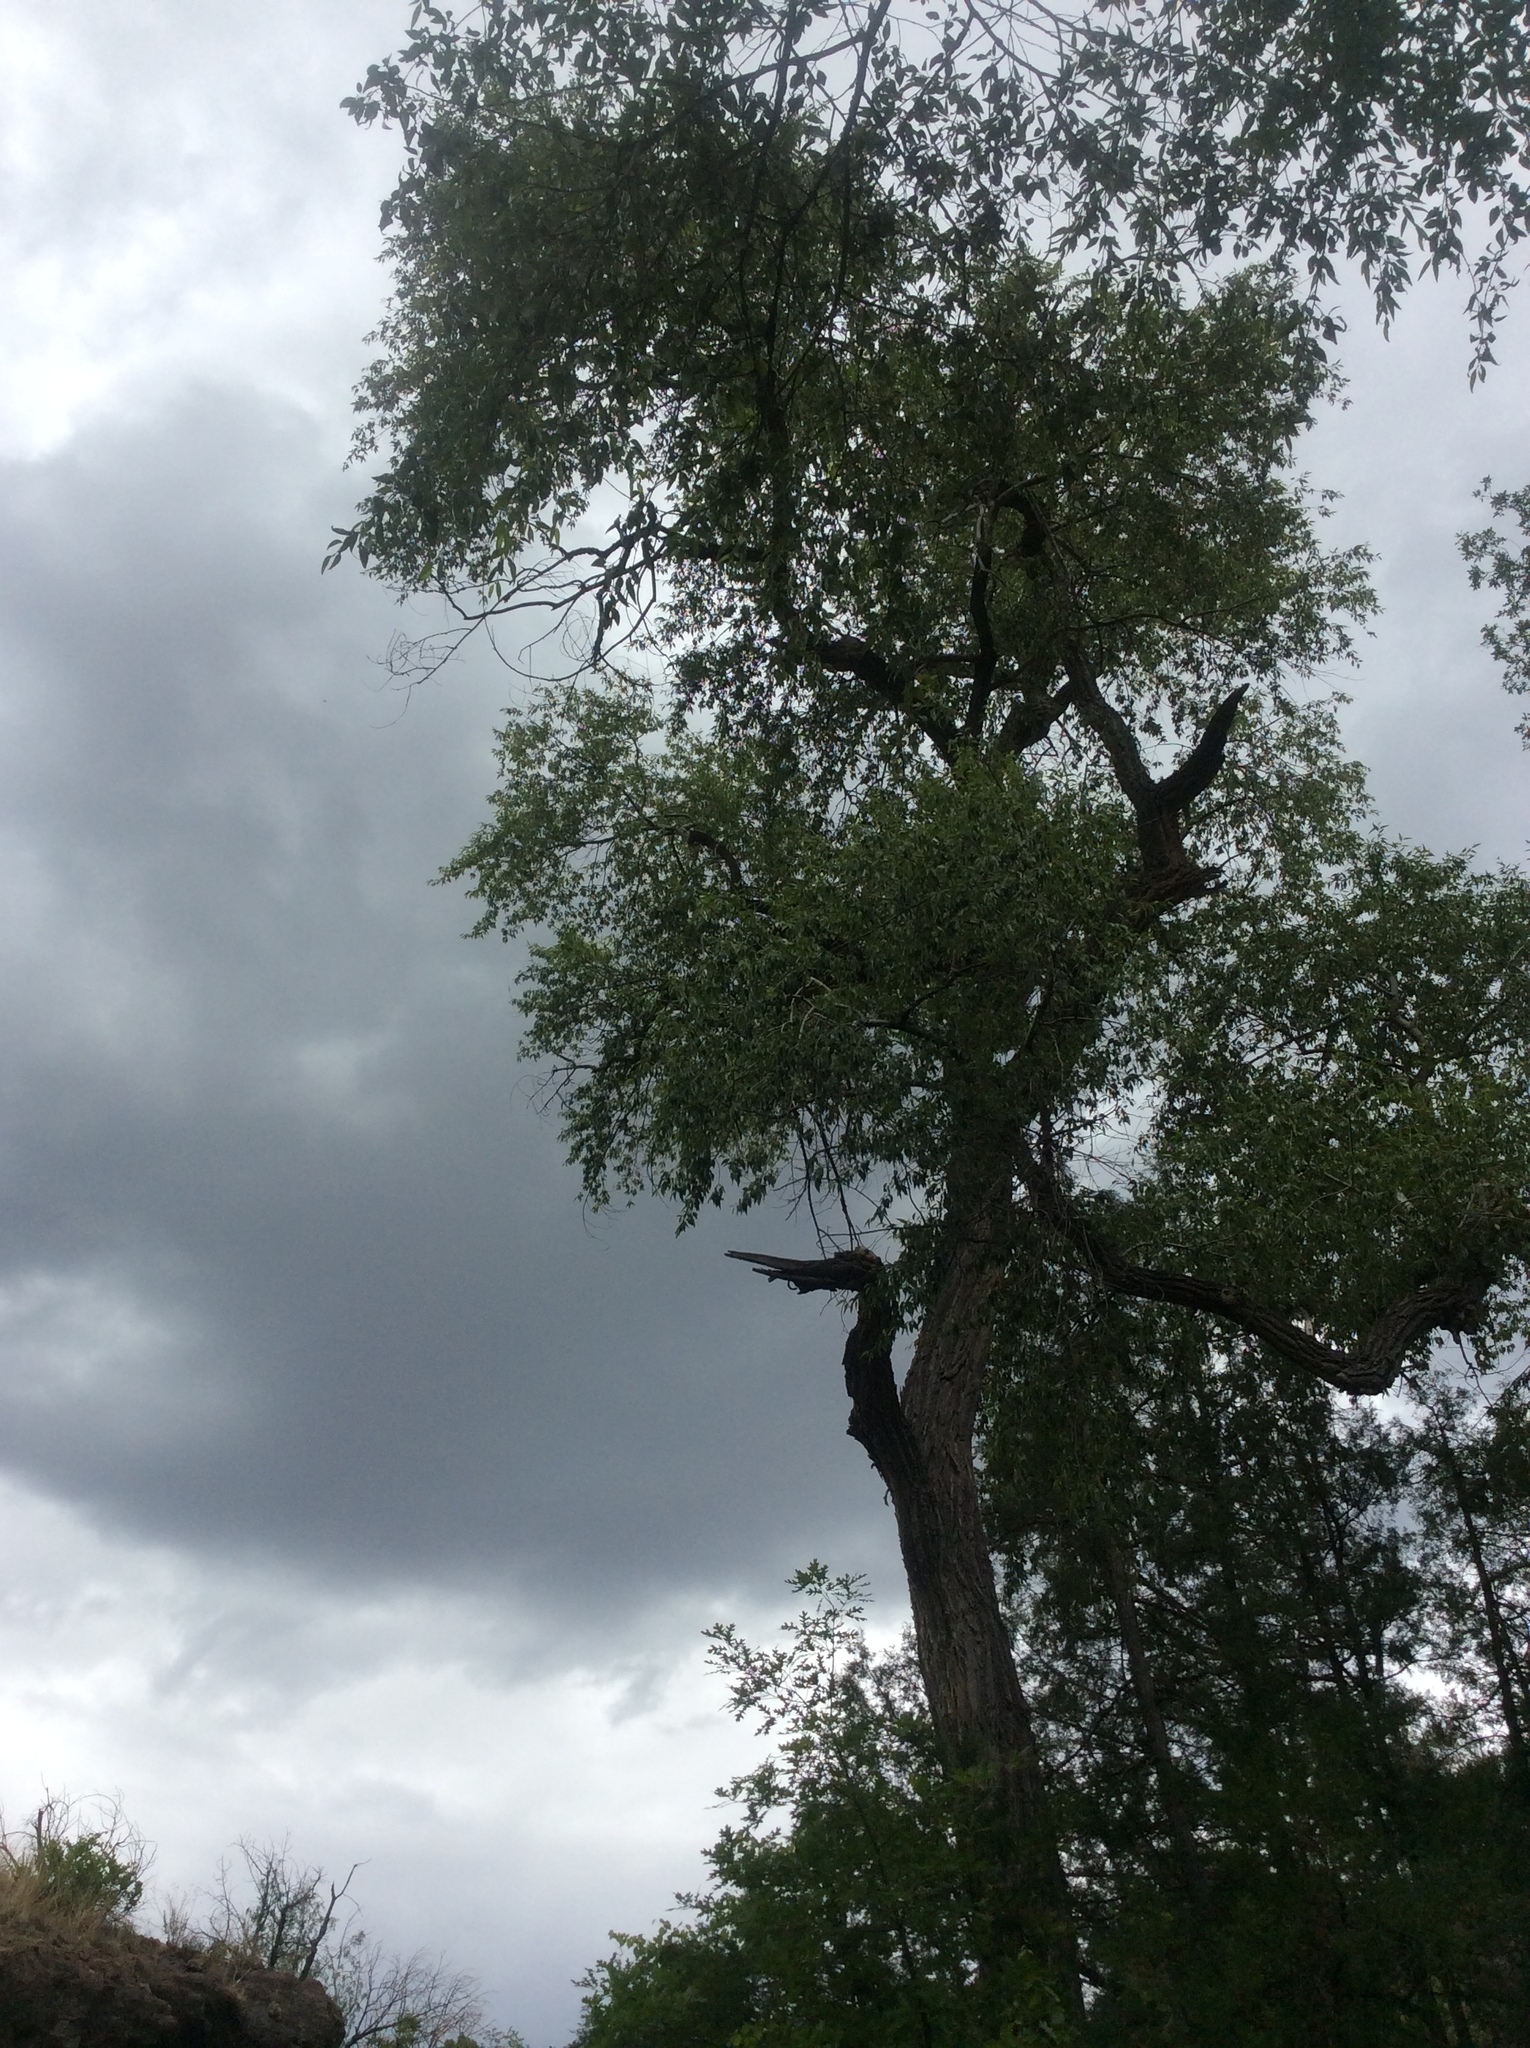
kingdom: Plantae
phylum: Tracheophyta
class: Magnoliopsida
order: Malpighiales
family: Salicaceae
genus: Populus
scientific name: Populus angustifolia
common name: Willow cottonwood
